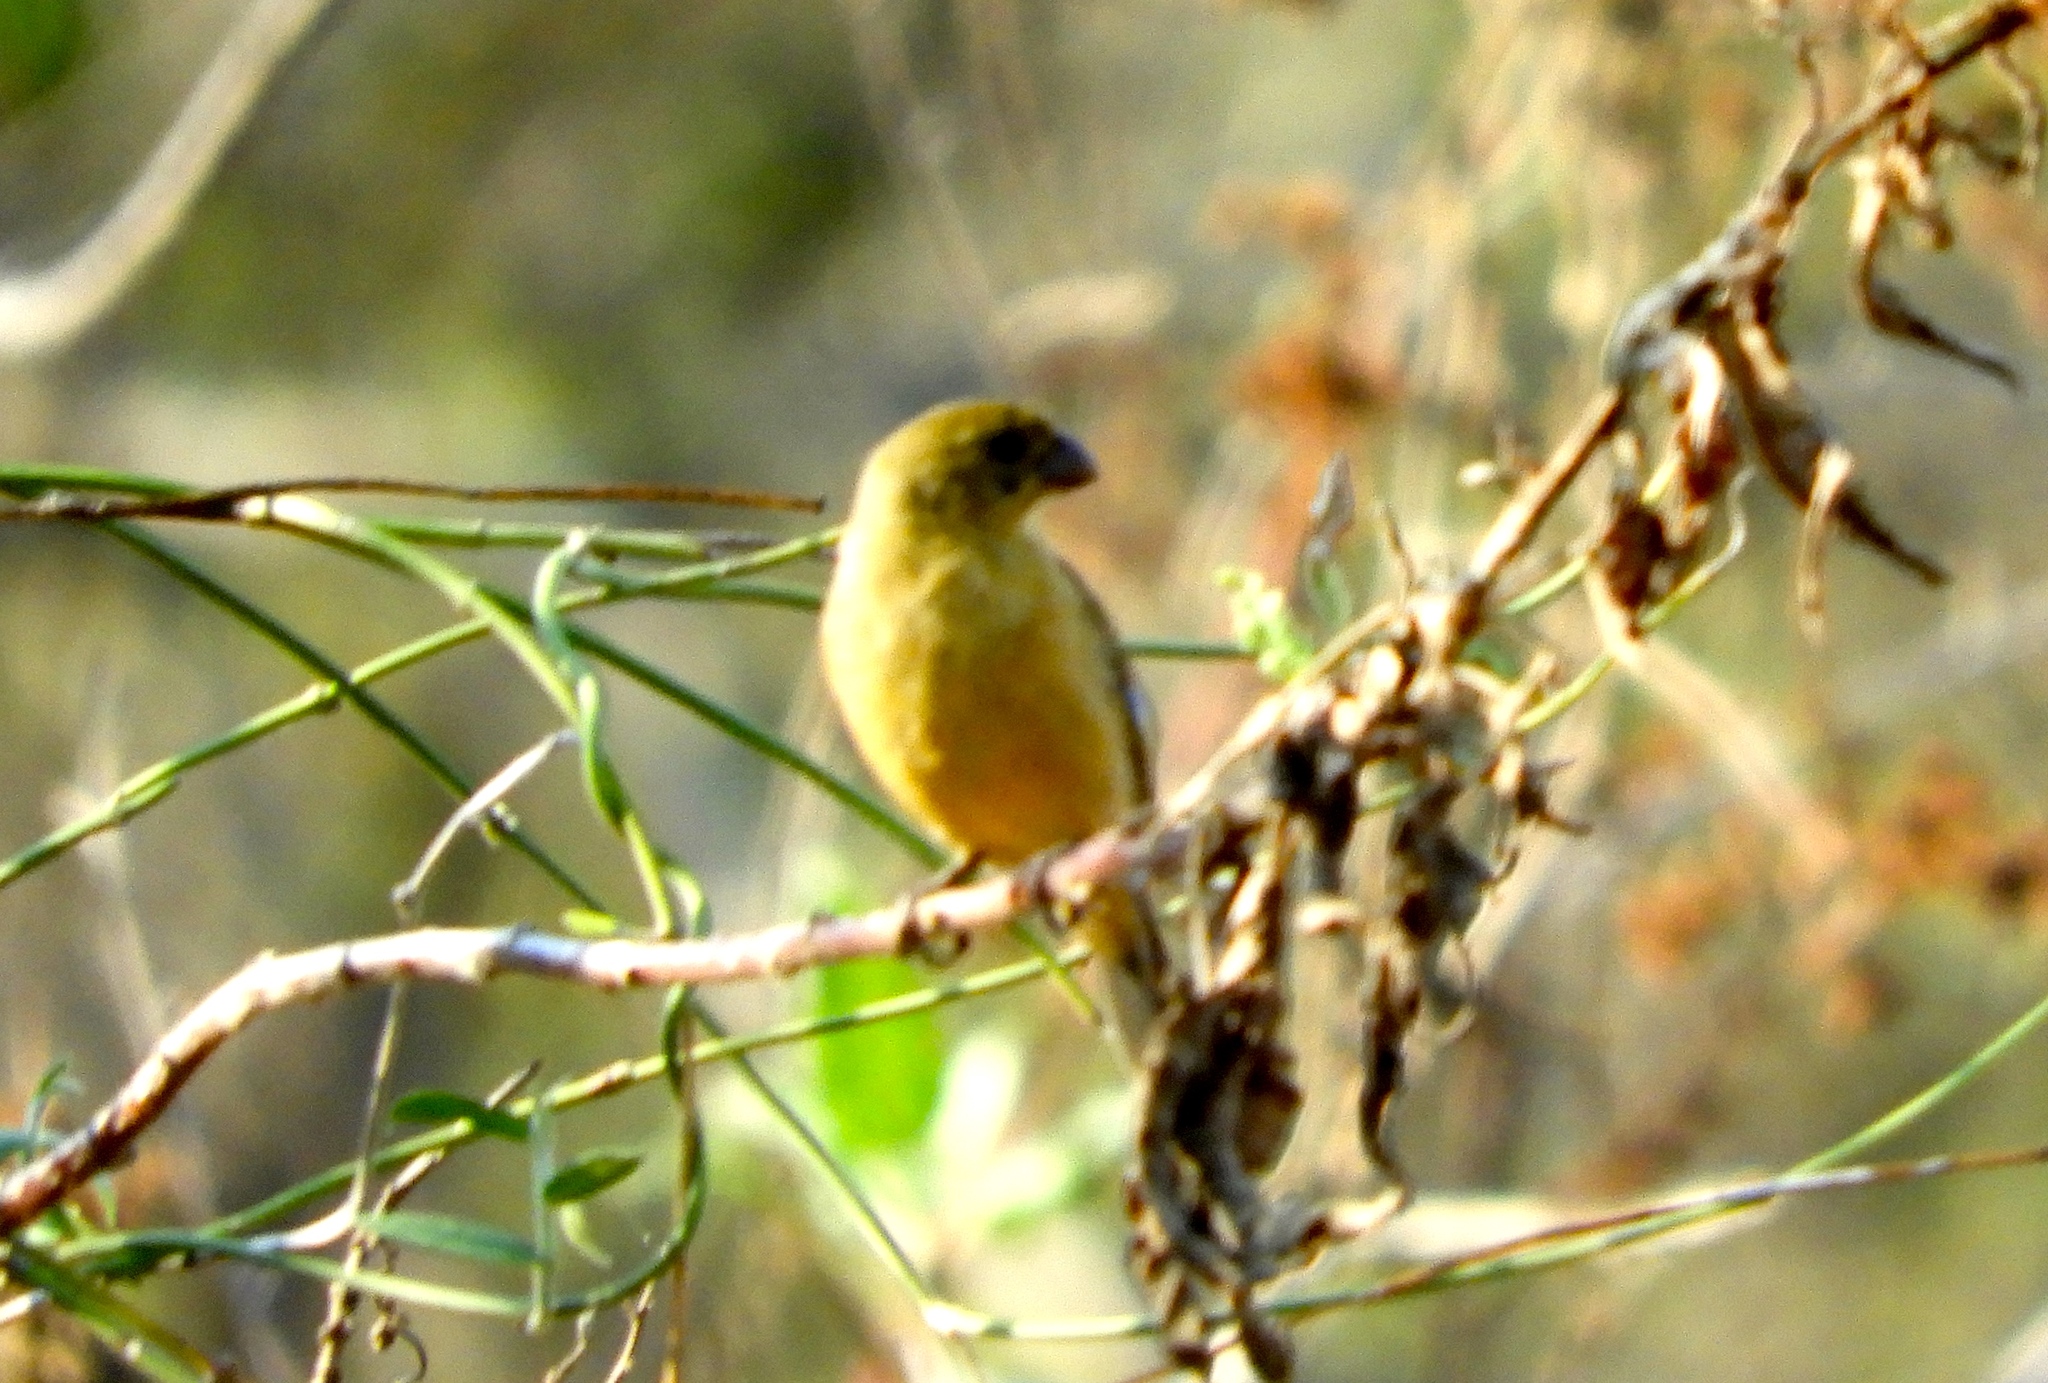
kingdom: Animalia
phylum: Chordata
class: Aves
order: Passeriformes
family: Thraupidae
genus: Sporophila
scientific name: Sporophila torqueola
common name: White-collared seedeater
